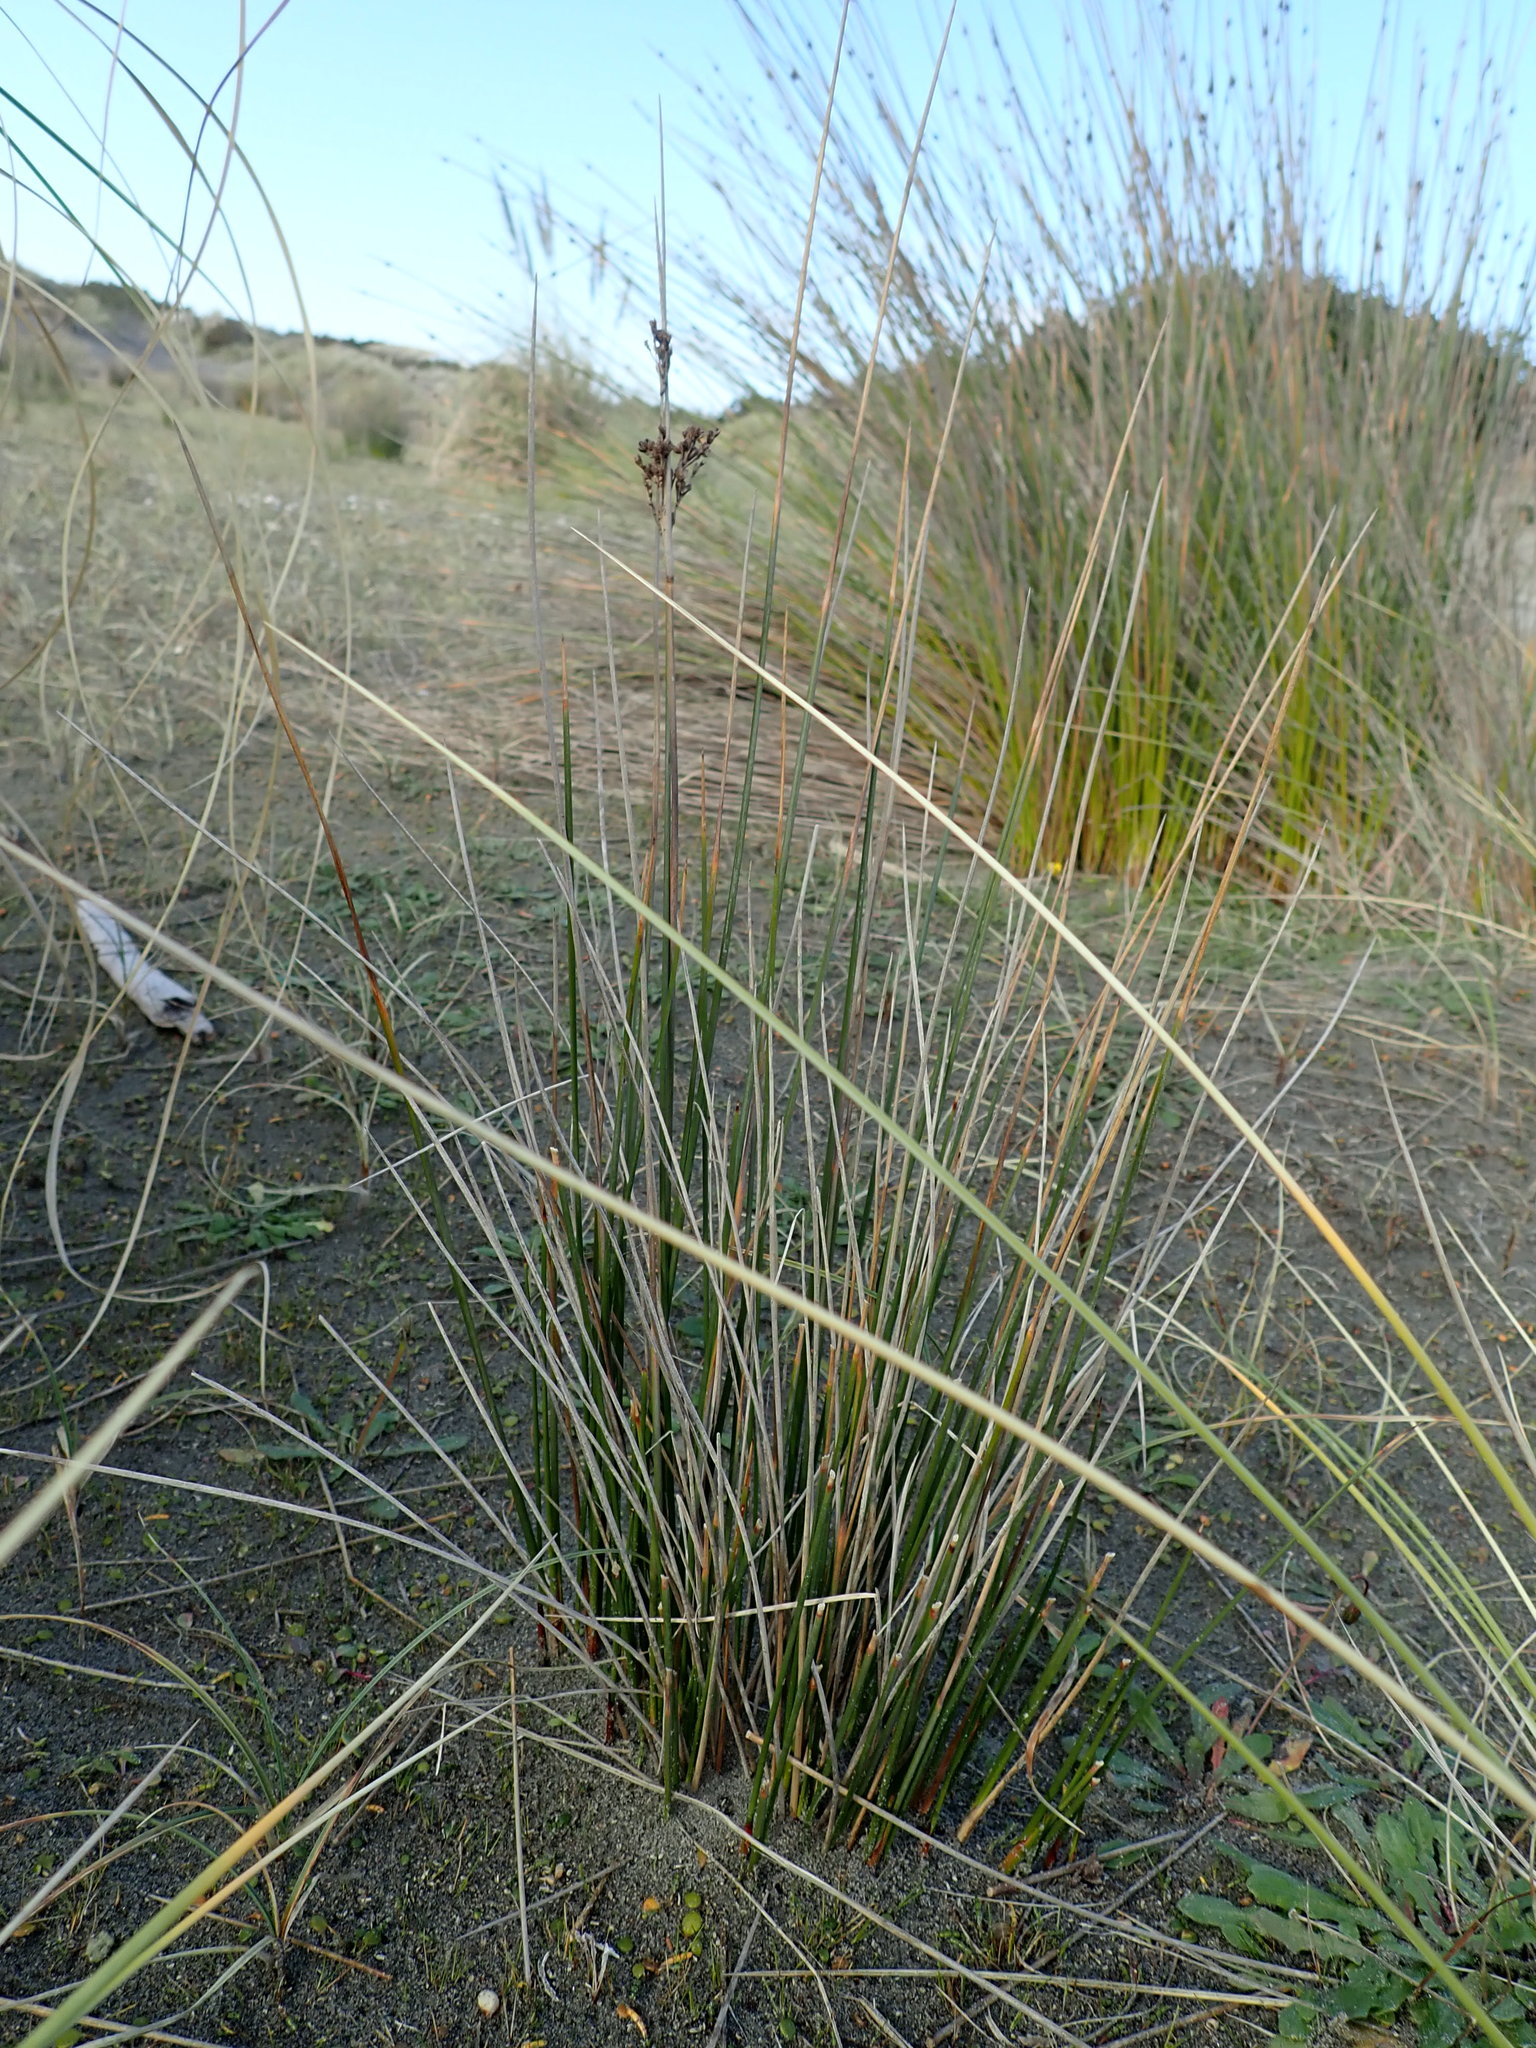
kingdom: Plantae
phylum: Tracheophyta
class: Liliopsida
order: Poales
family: Juncaceae
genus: Juncus
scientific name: Juncus kraussii
